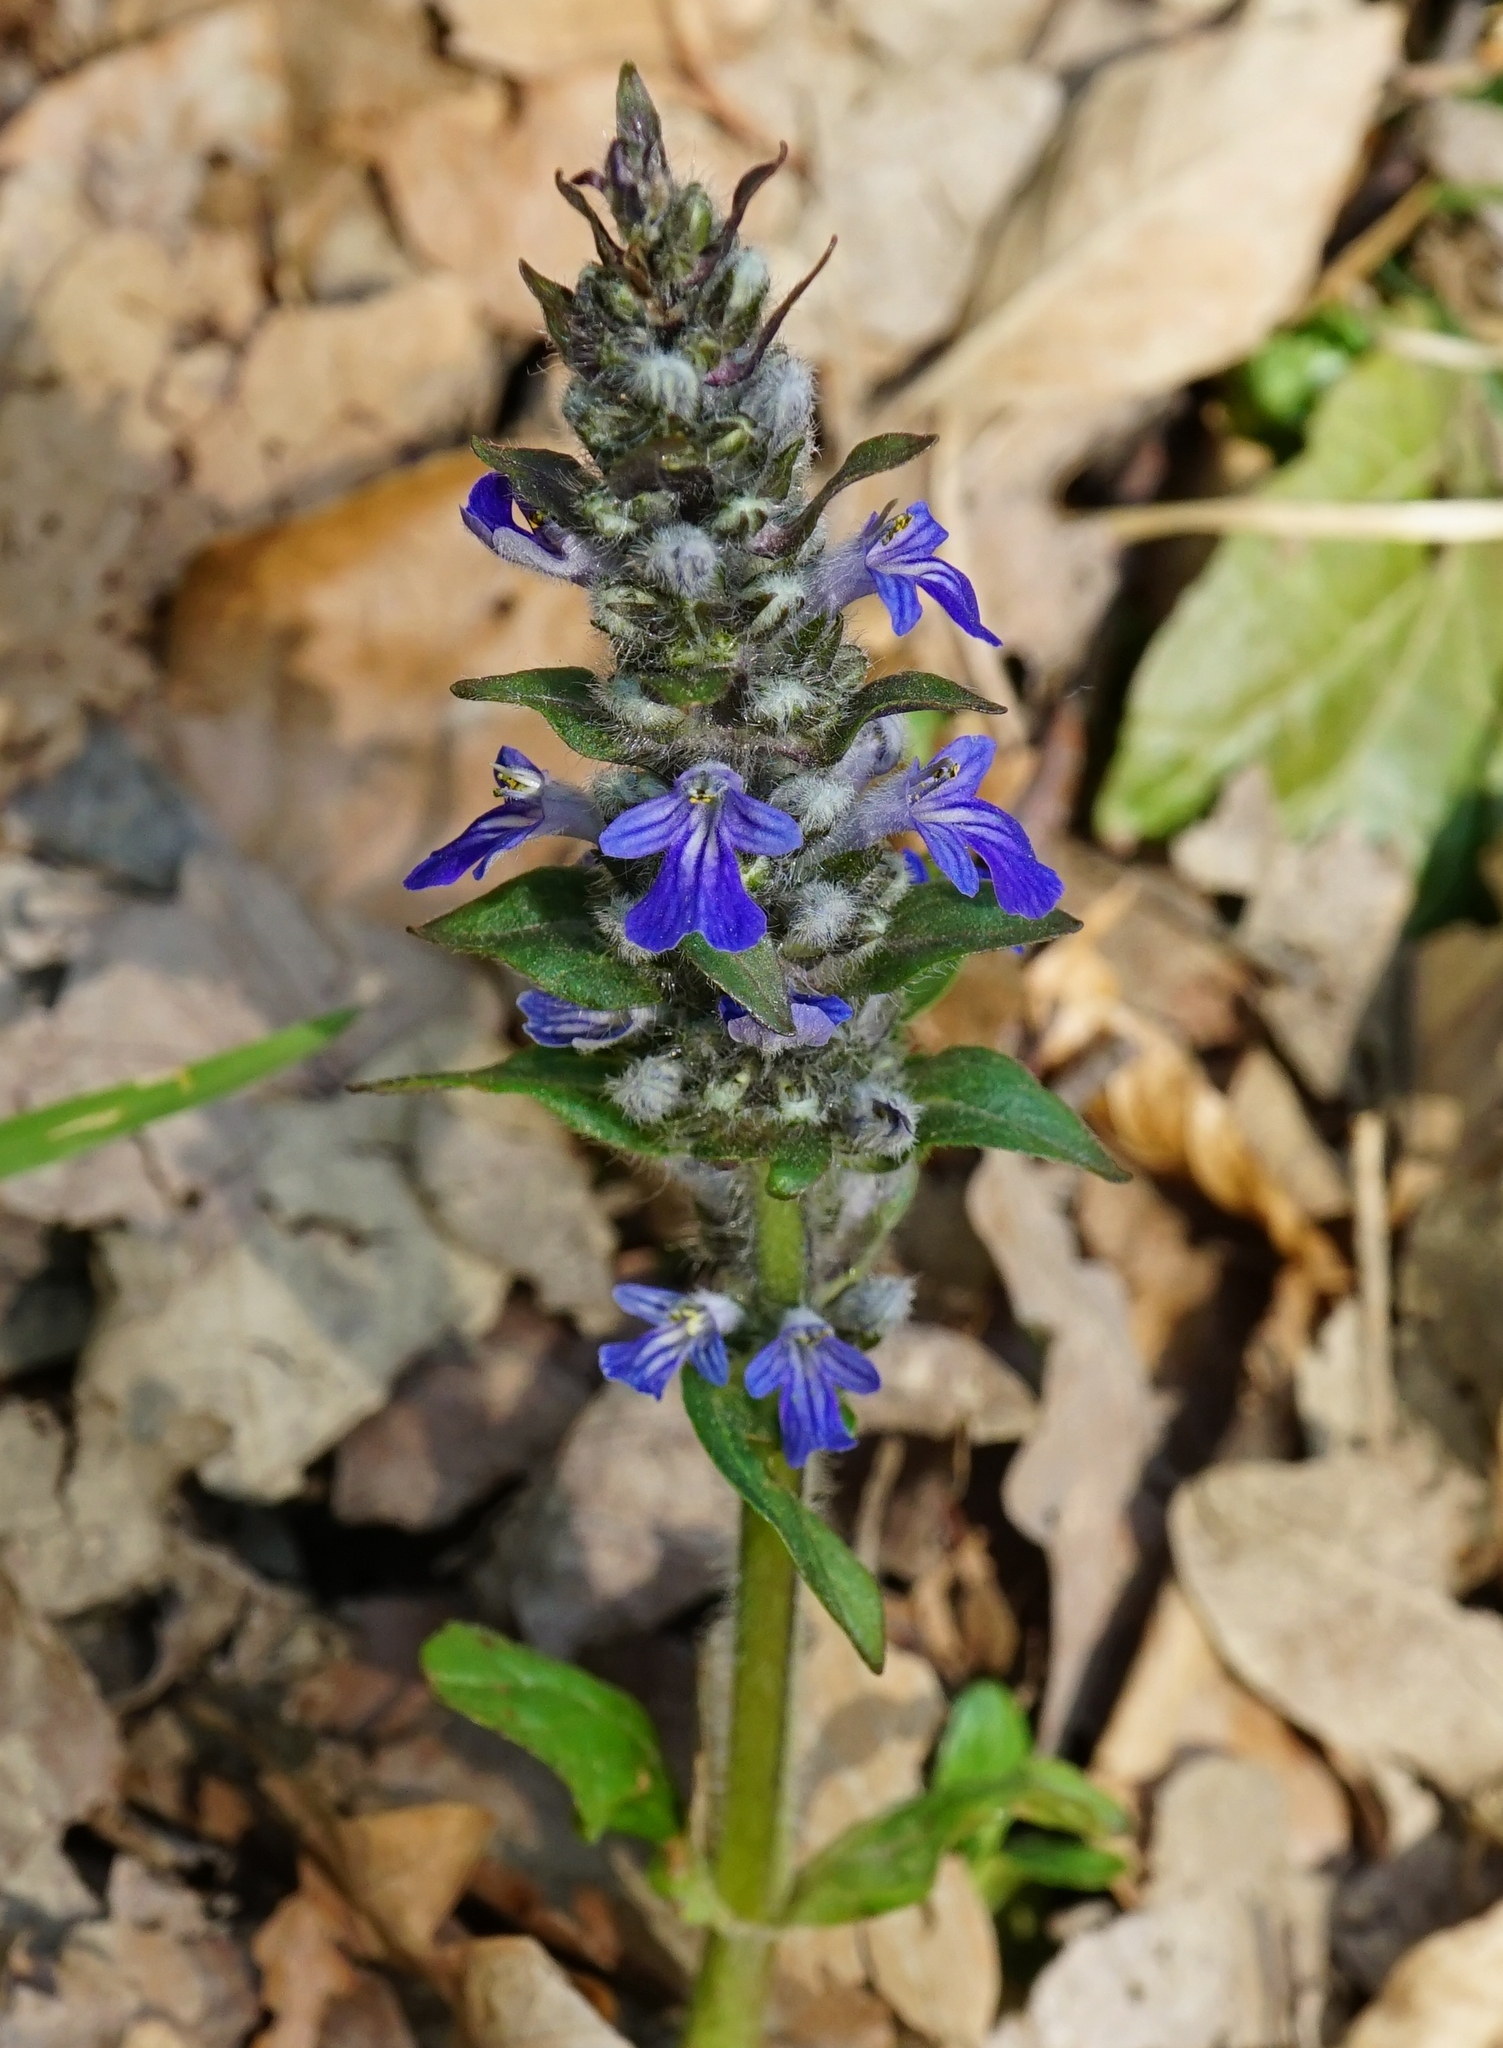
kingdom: Plantae
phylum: Tracheophyta
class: Magnoliopsida
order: Lamiales
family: Lamiaceae
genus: Ajuga
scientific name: Ajuga reptans
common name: Bugle
